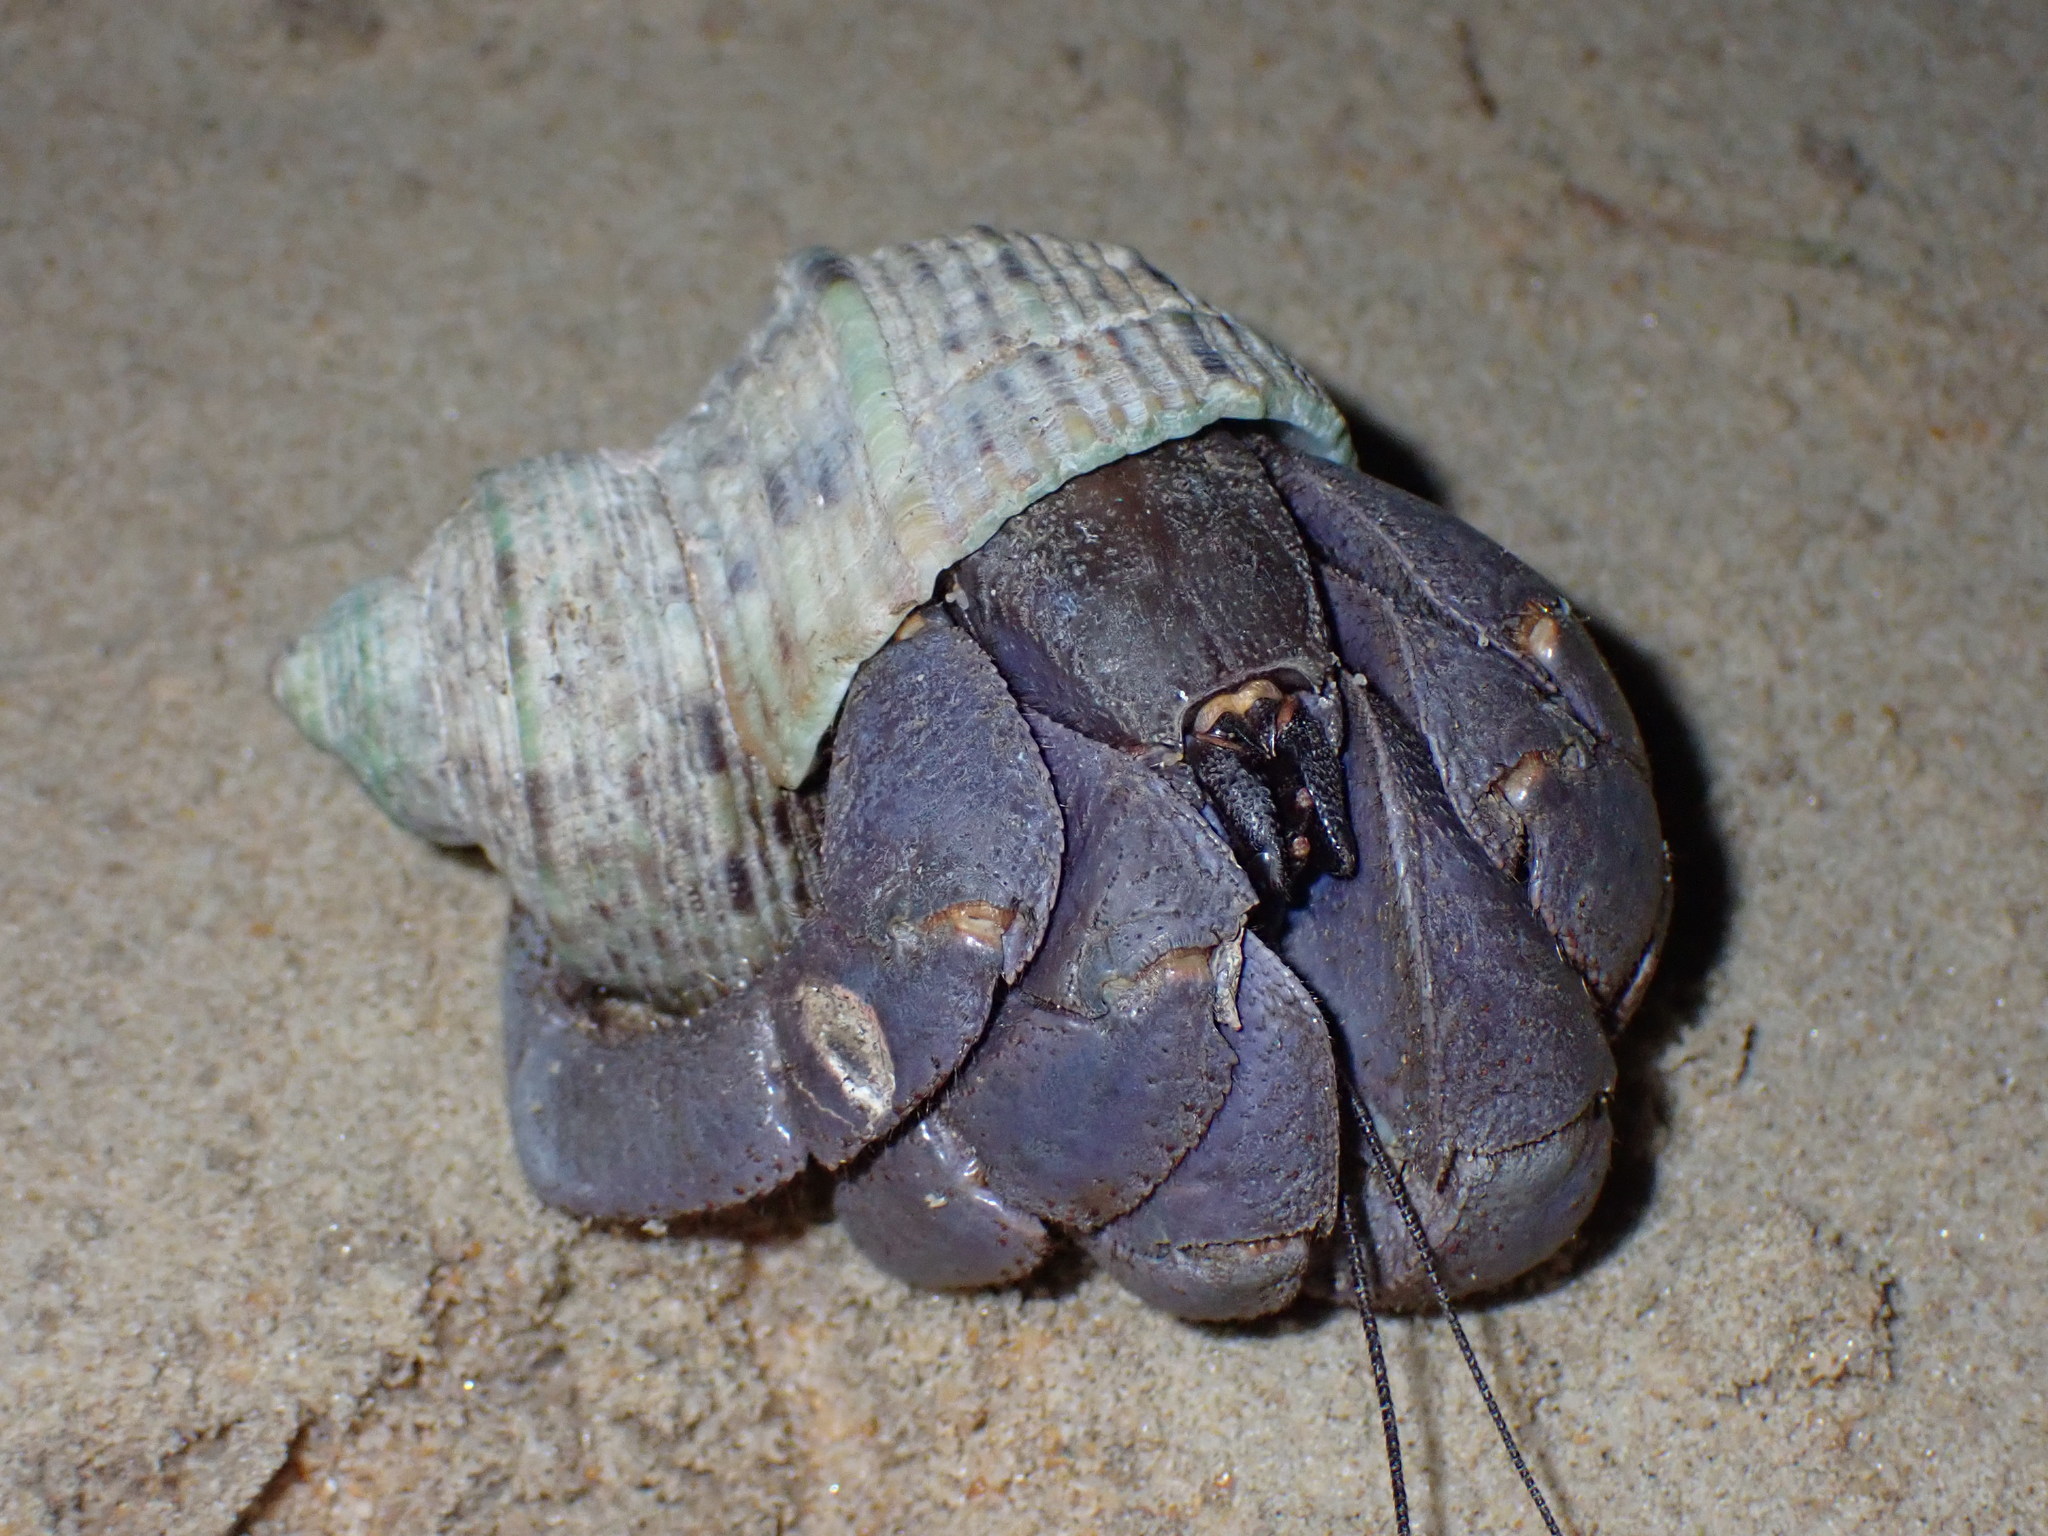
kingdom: Animalia
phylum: Arthropoda
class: Malacostraca
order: Decapoda
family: Coenobitidae
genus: Coenobita
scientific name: Coenobita violascens
